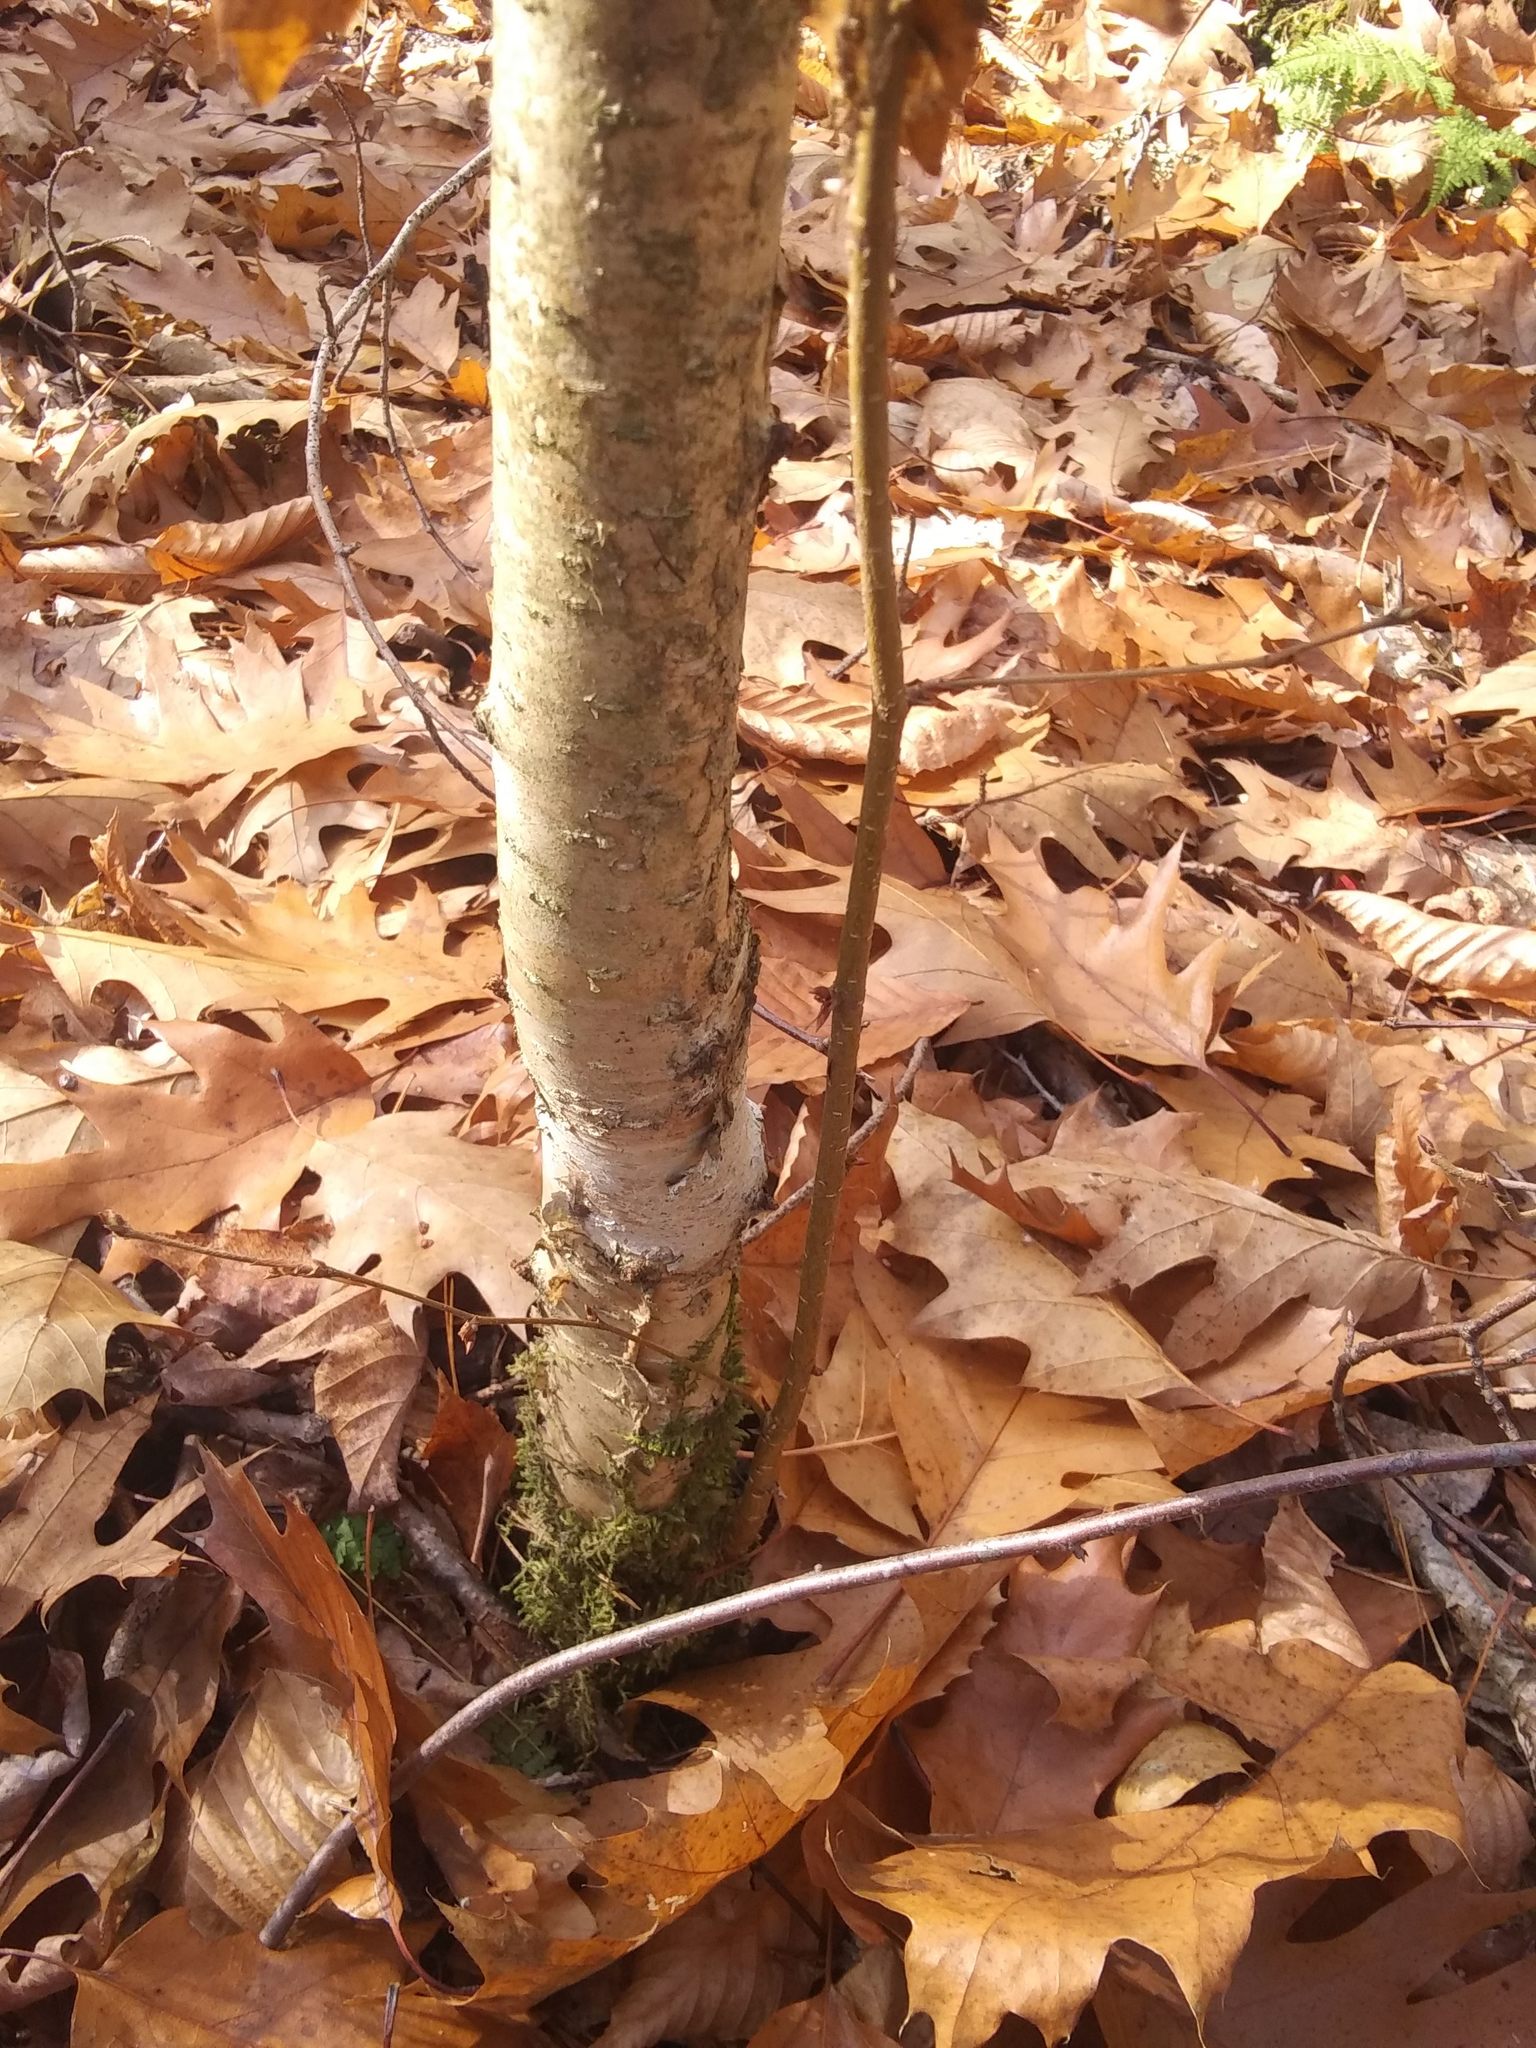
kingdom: Plantae
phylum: Tracheophyta
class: Magnoliopsida
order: Fagales
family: Betulaceae
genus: Betula
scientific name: Betula alleghaniensis
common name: Yellow birch
